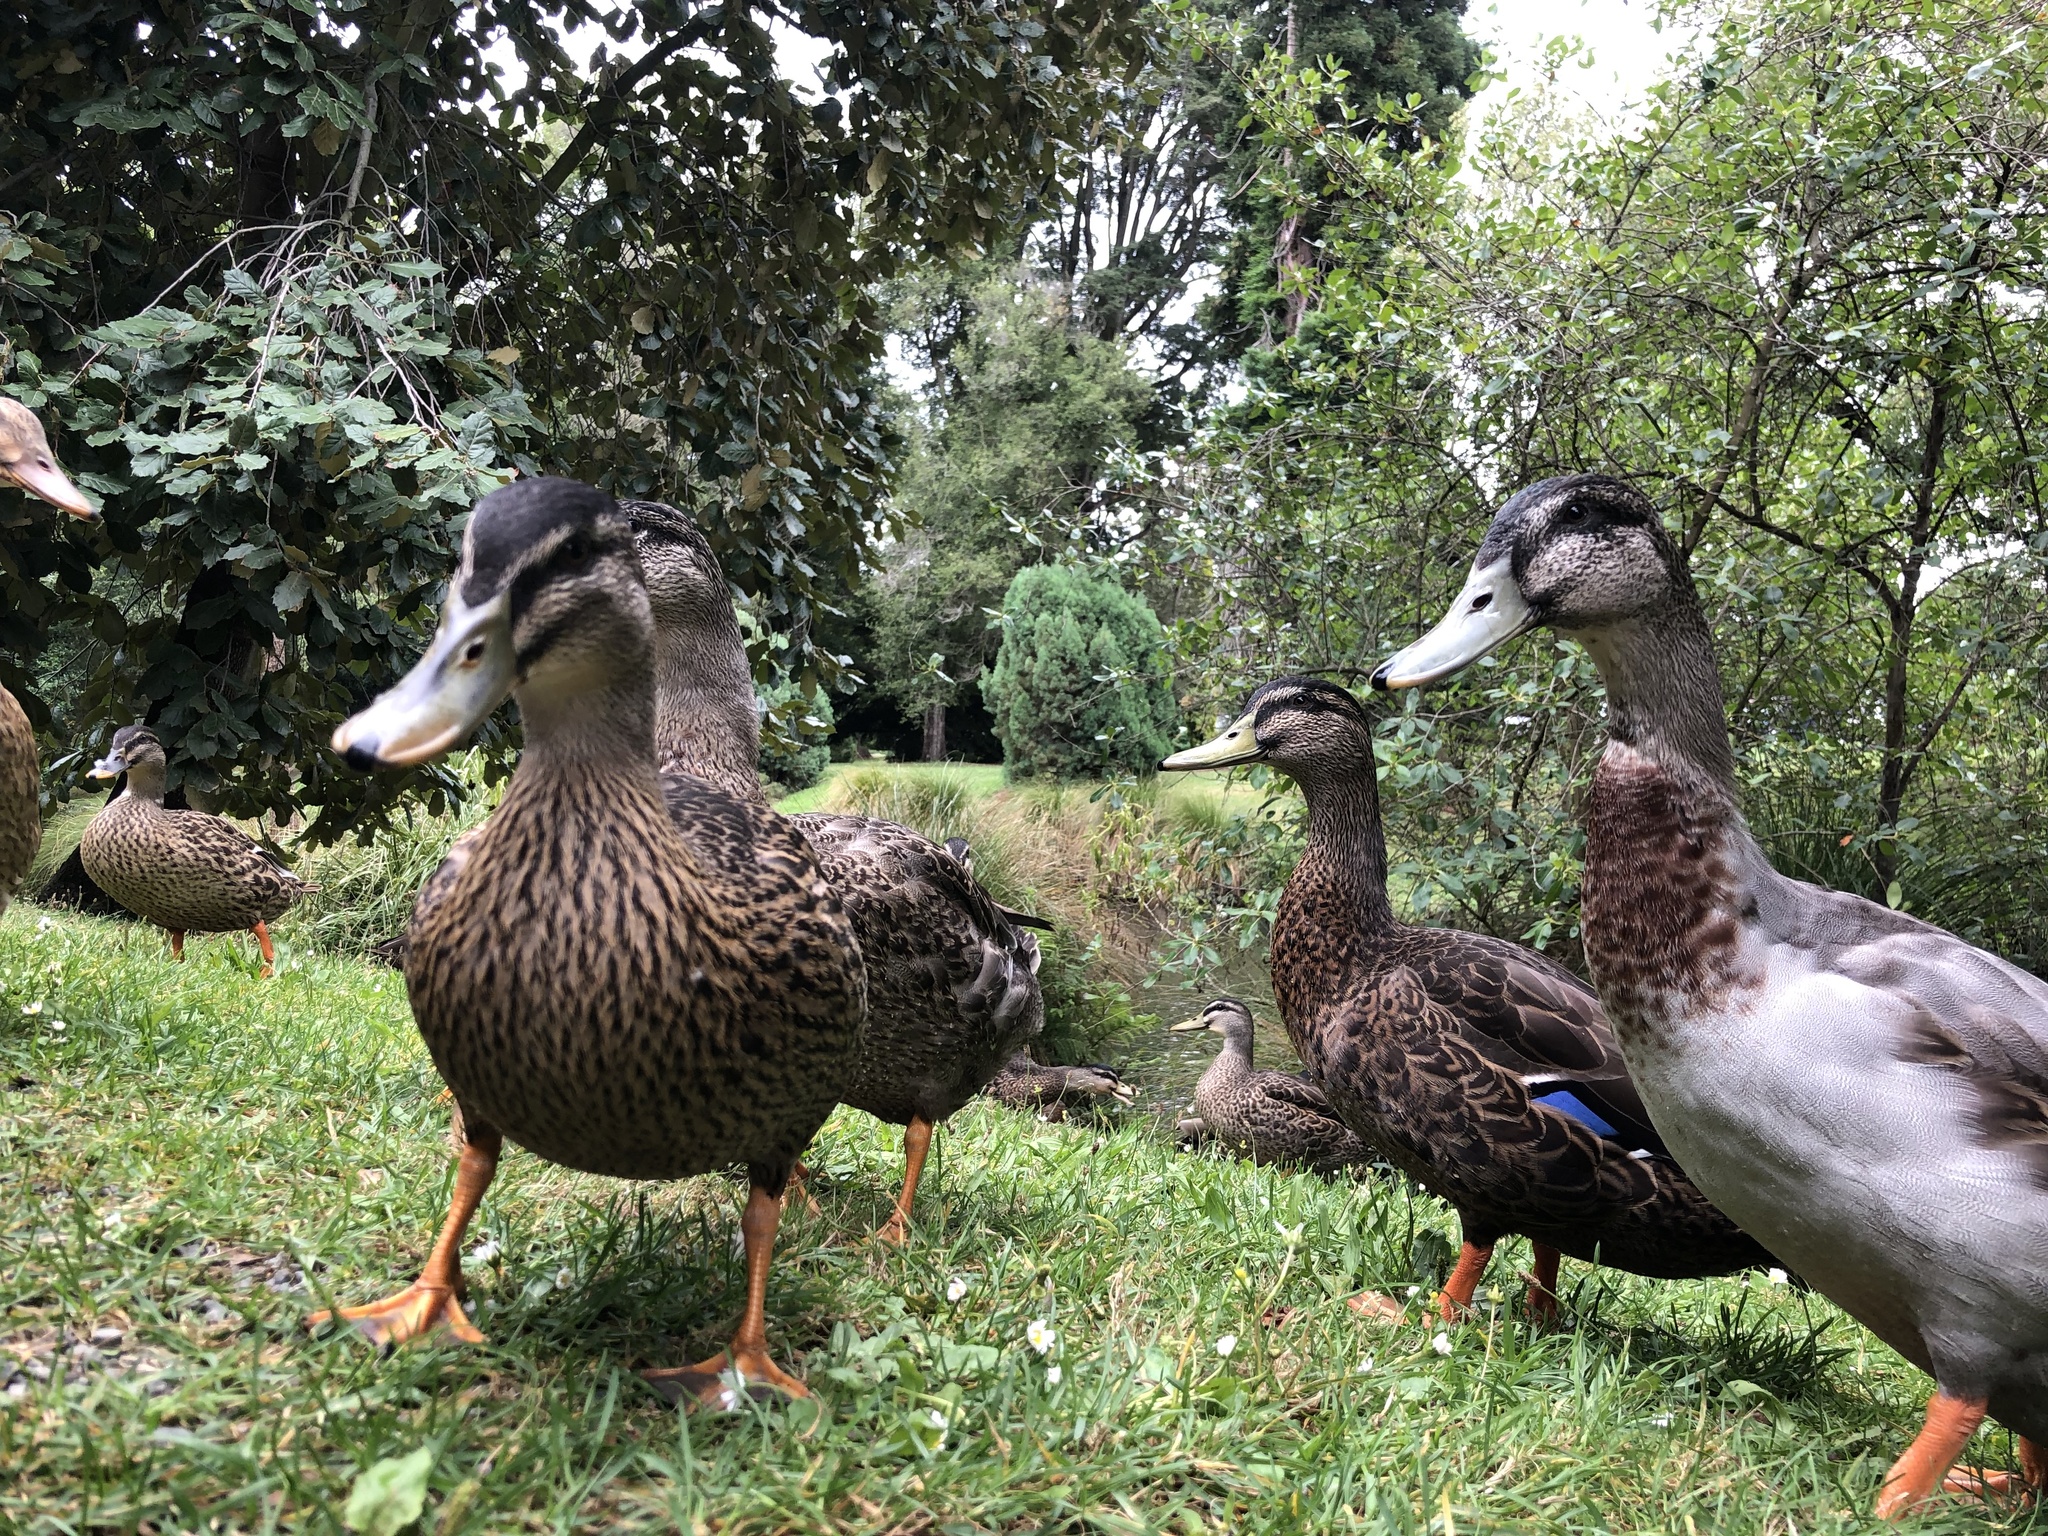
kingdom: Animalia
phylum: Chordata
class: Aves
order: Anseriformes
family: Anatidae
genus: Anas
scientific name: Anas
